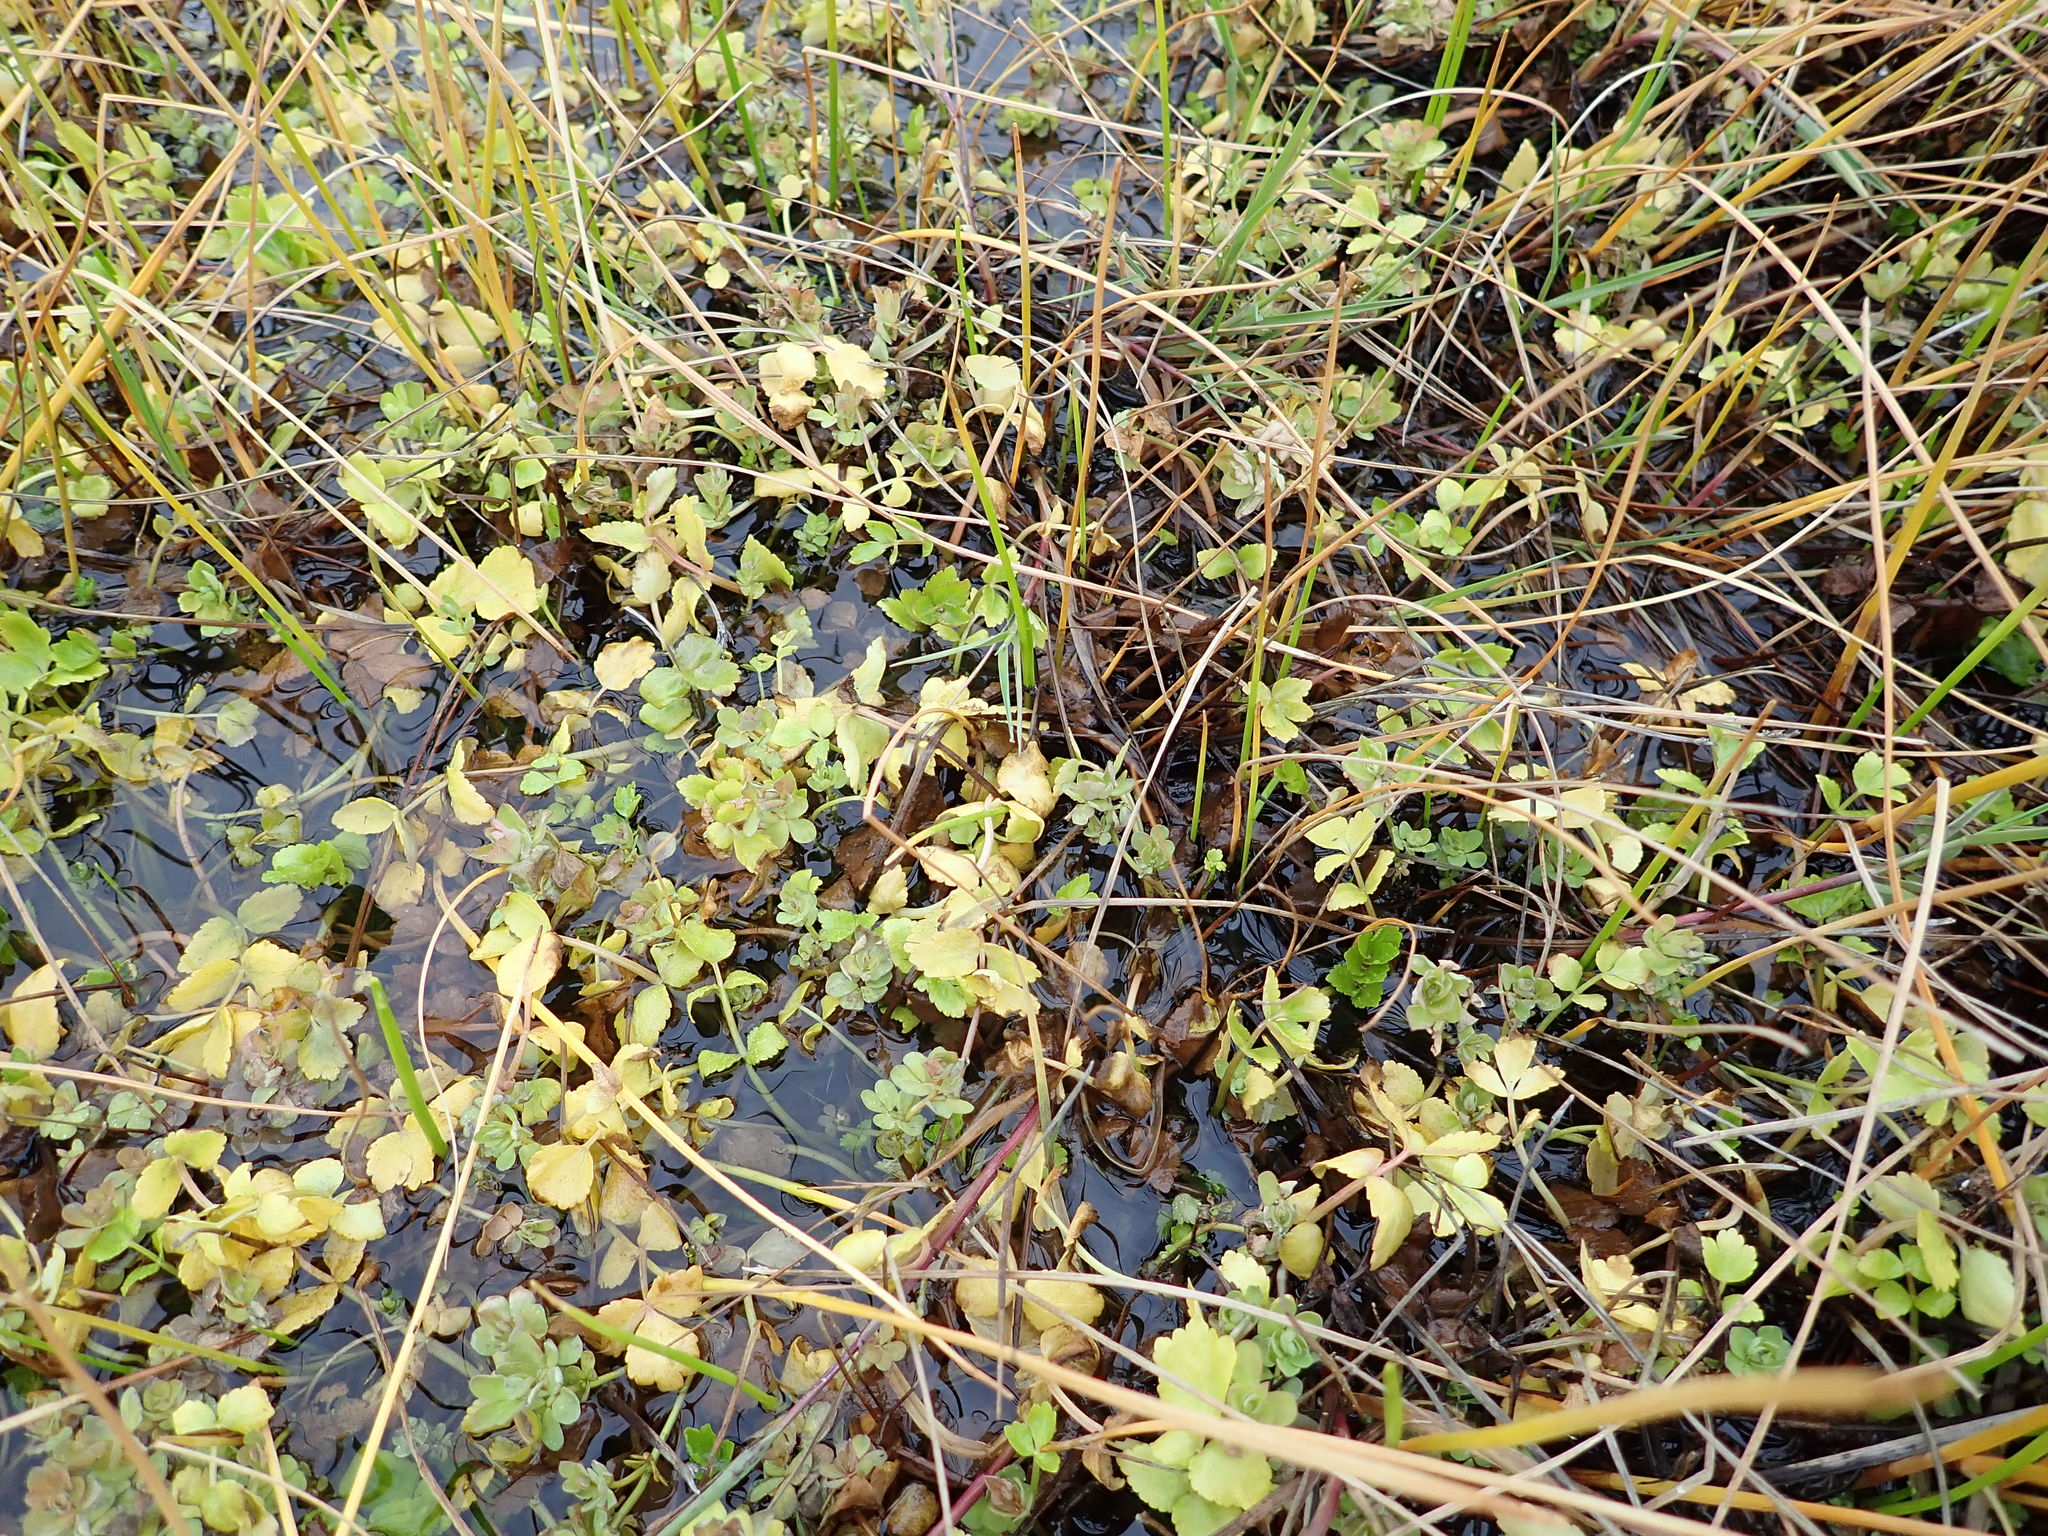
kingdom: Plantae
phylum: Tracheophyta
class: Magnoliopsida
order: Apiales
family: Apiaceae
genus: Helosciadium
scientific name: Helosciadium nodiflorum
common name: Fool's-watercress
